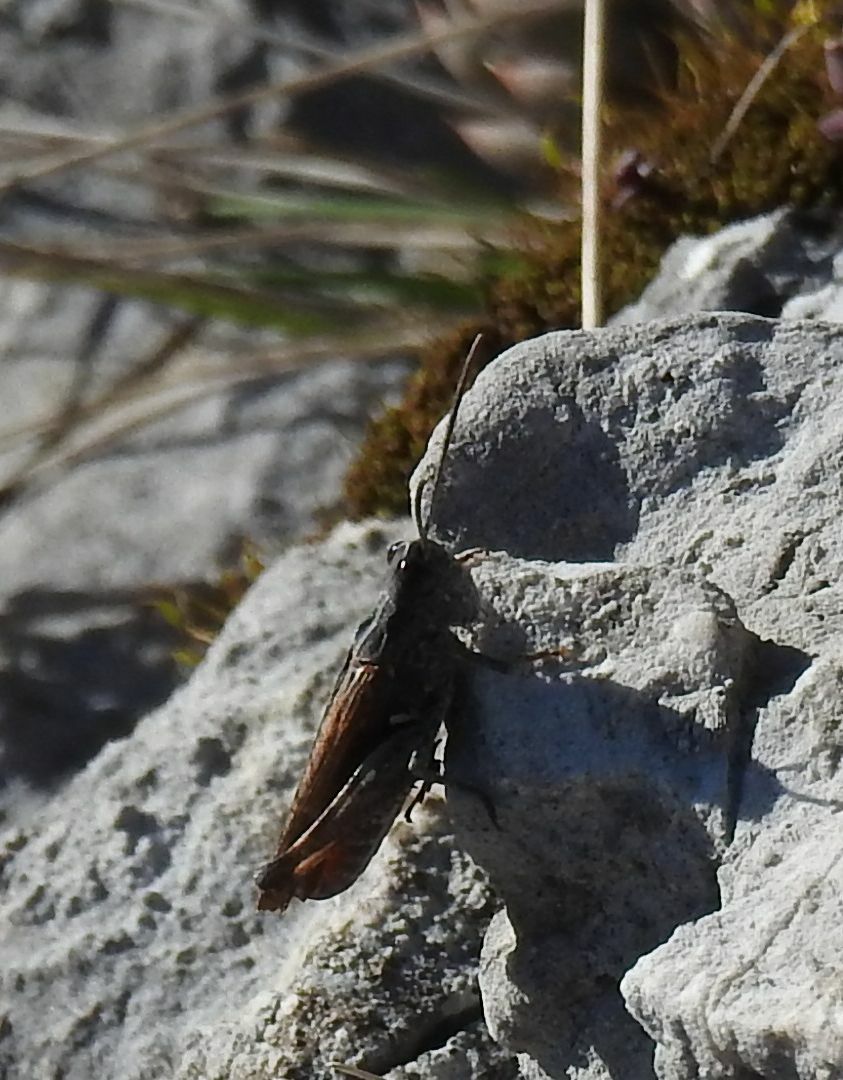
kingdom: Animalia
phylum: Arthropoda
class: Insecta
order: Orthoptera
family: Acrididae
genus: Omocestus
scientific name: Omocestus raymondi
